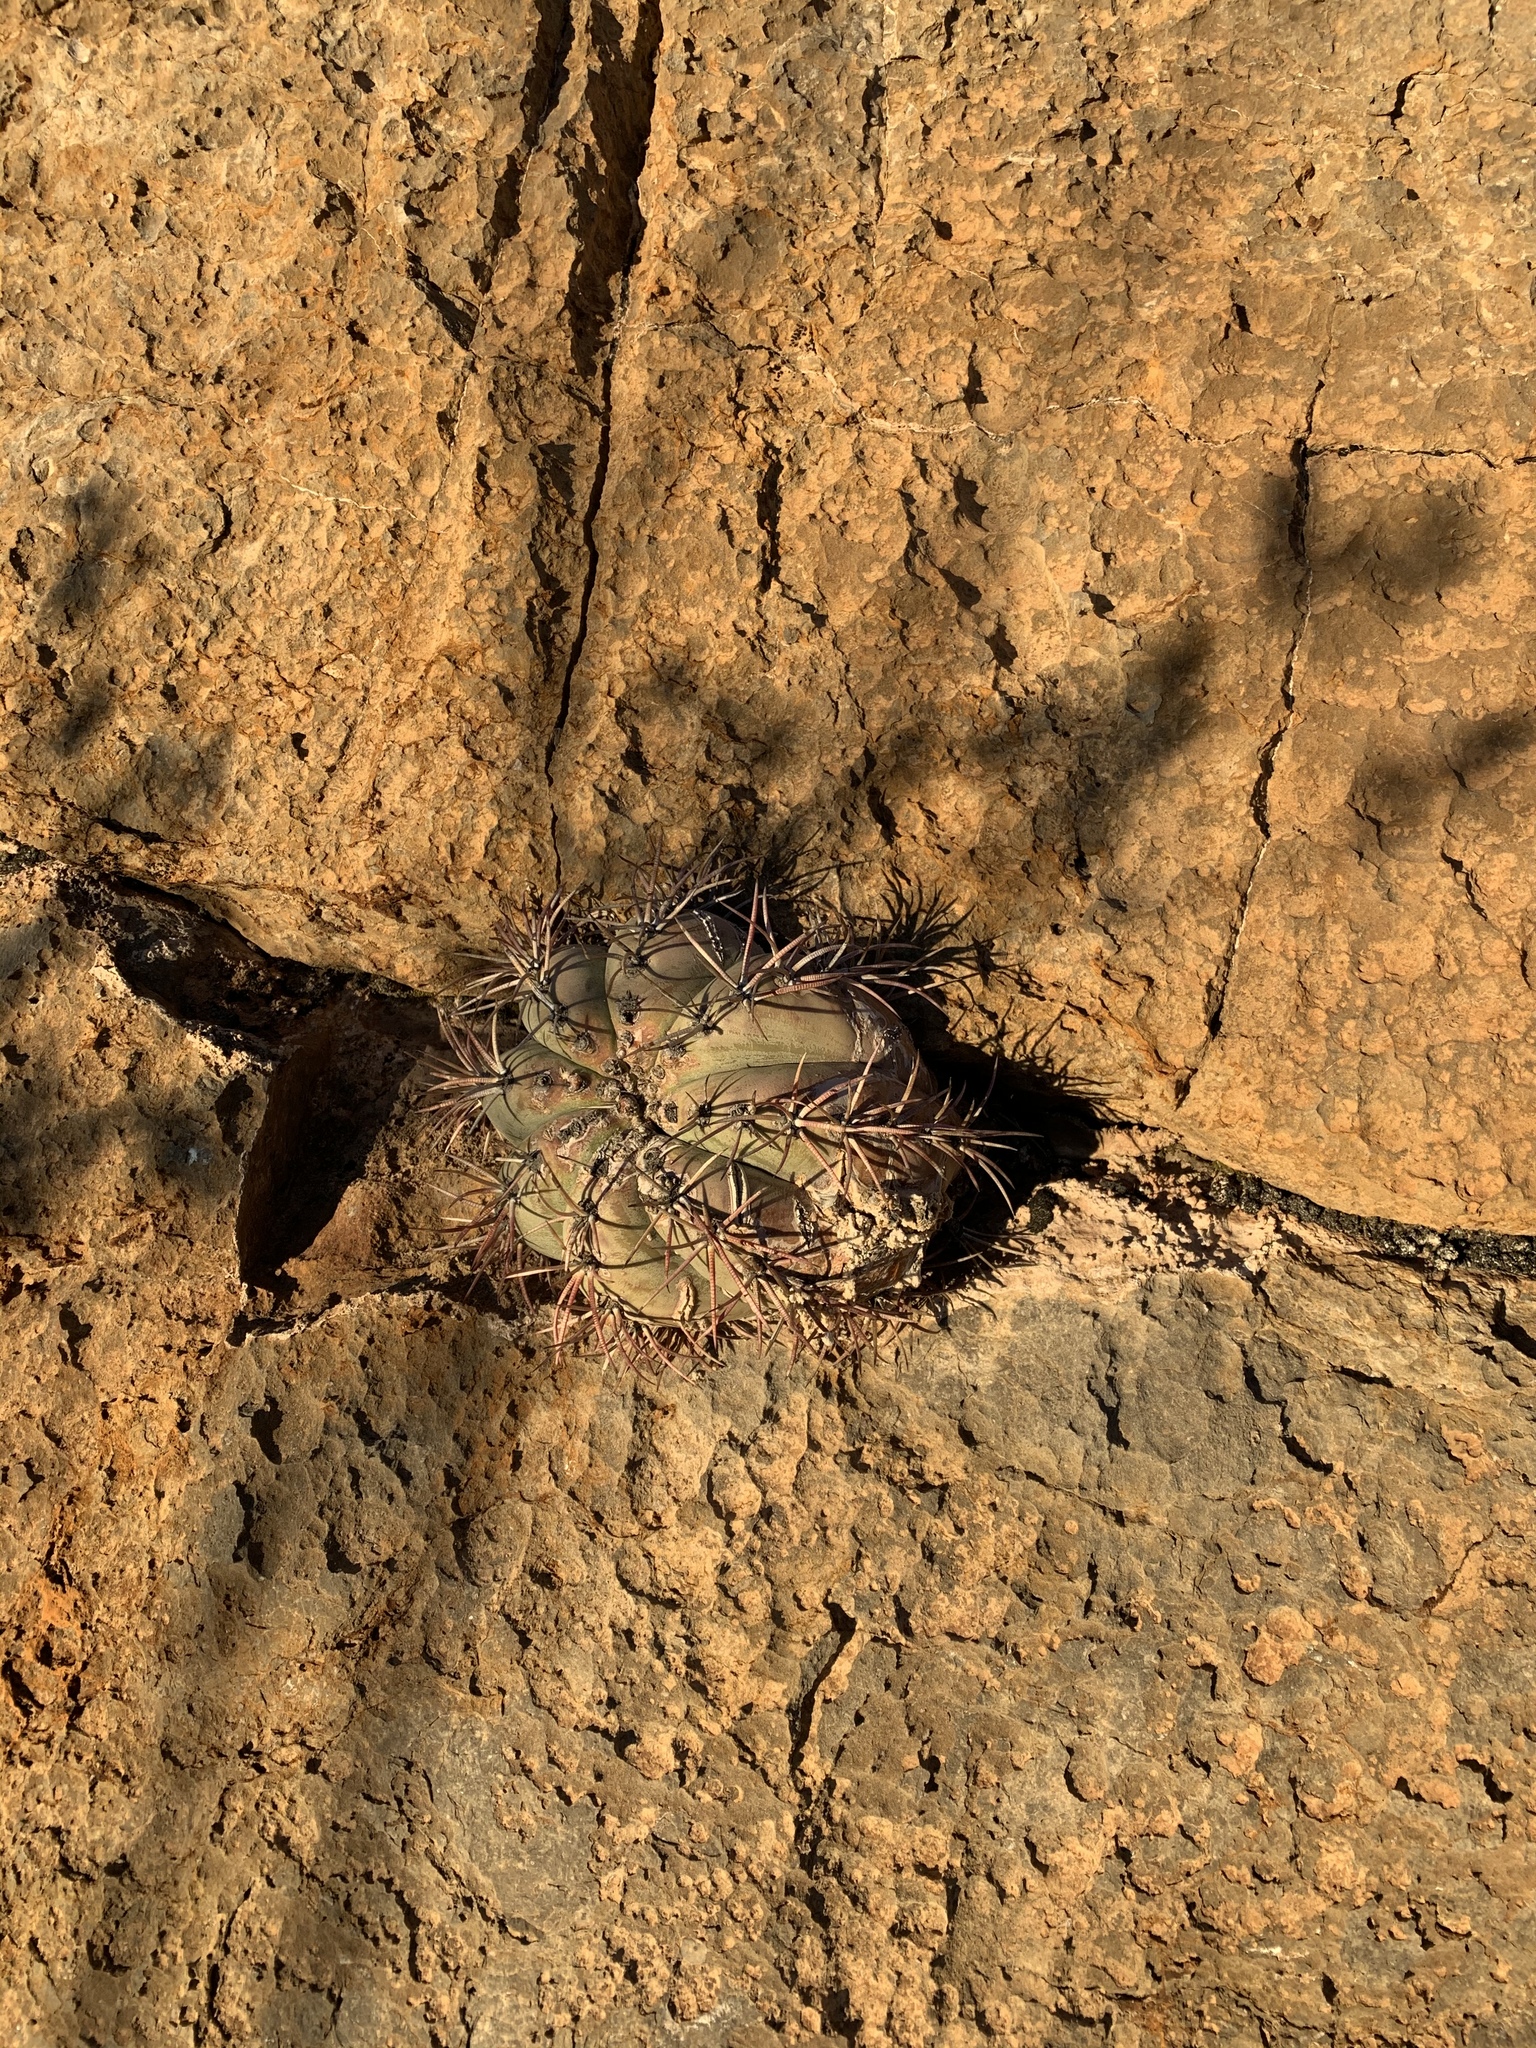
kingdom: Plantae
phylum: Tracheophyta
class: Magnoliopsida
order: Caryophyllales
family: Cactaceae
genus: Echinocactus
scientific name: Echinocactus horizonthalonius
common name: Devilshead
